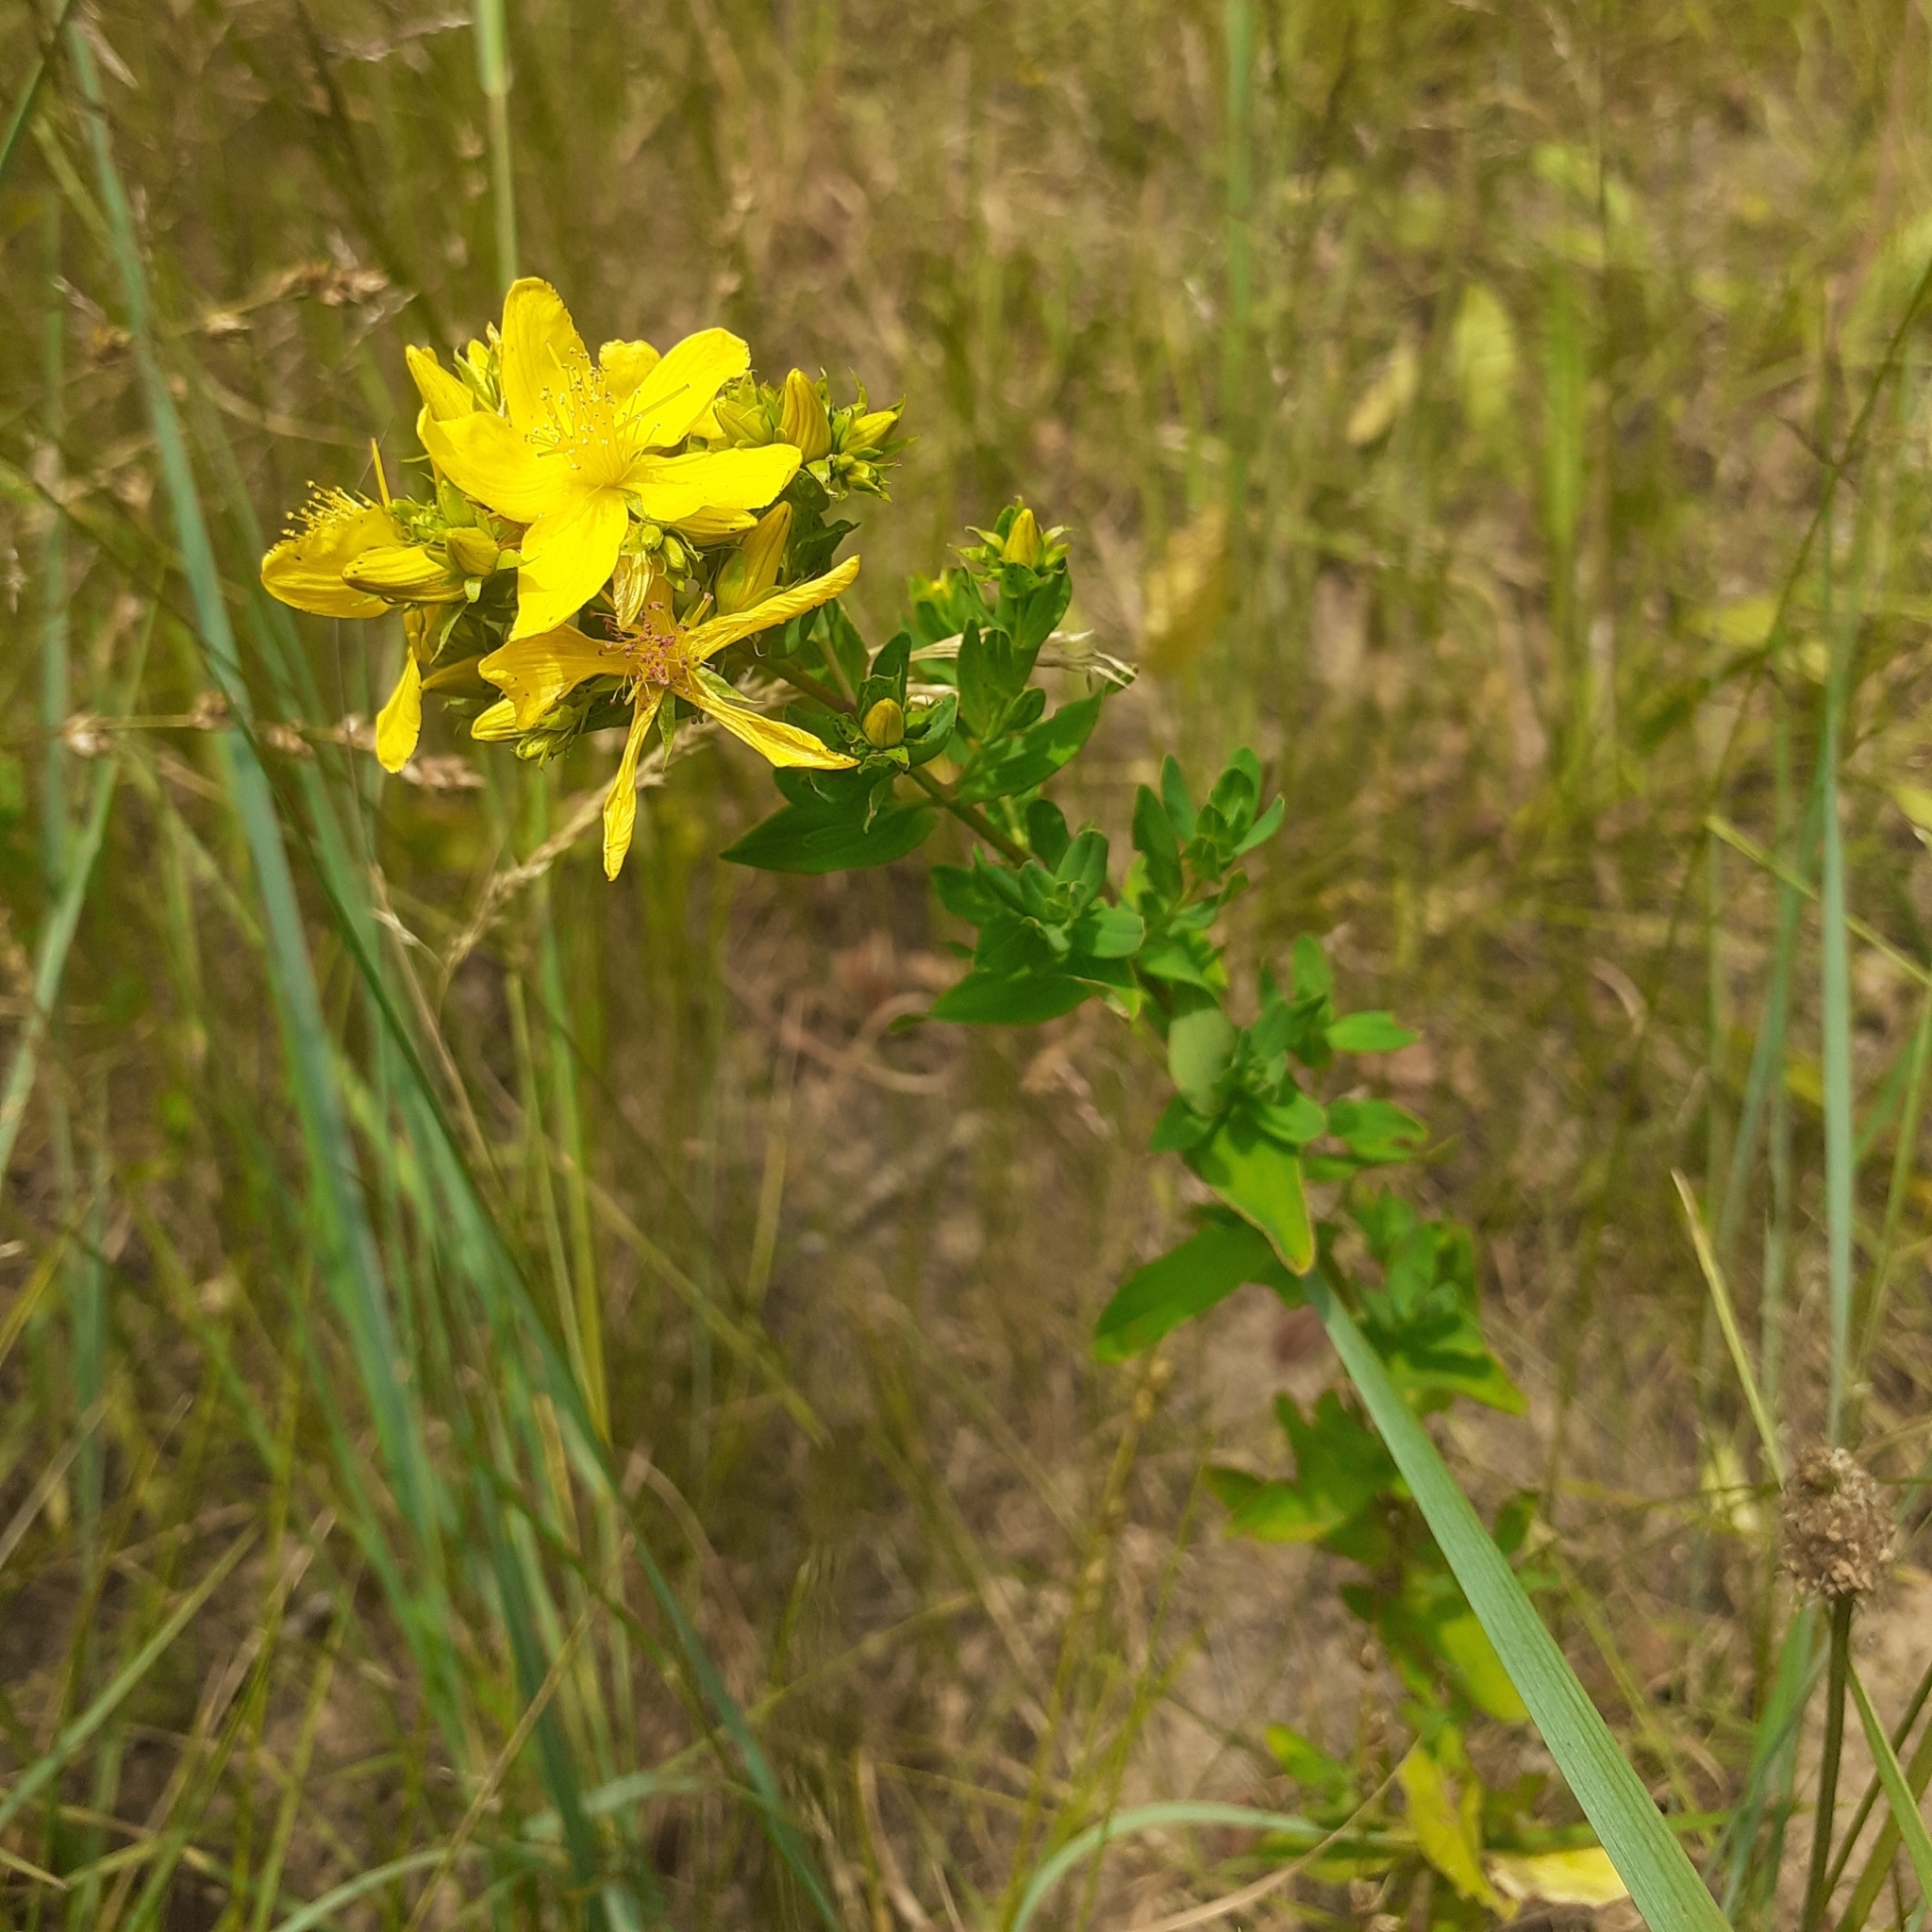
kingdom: Plantae
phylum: Tracheophyta
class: Magnoliopsida
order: Malpighiales
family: Hypericaceae
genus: Hypericum
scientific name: Hypericum perforatum
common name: Common st. johnswort
